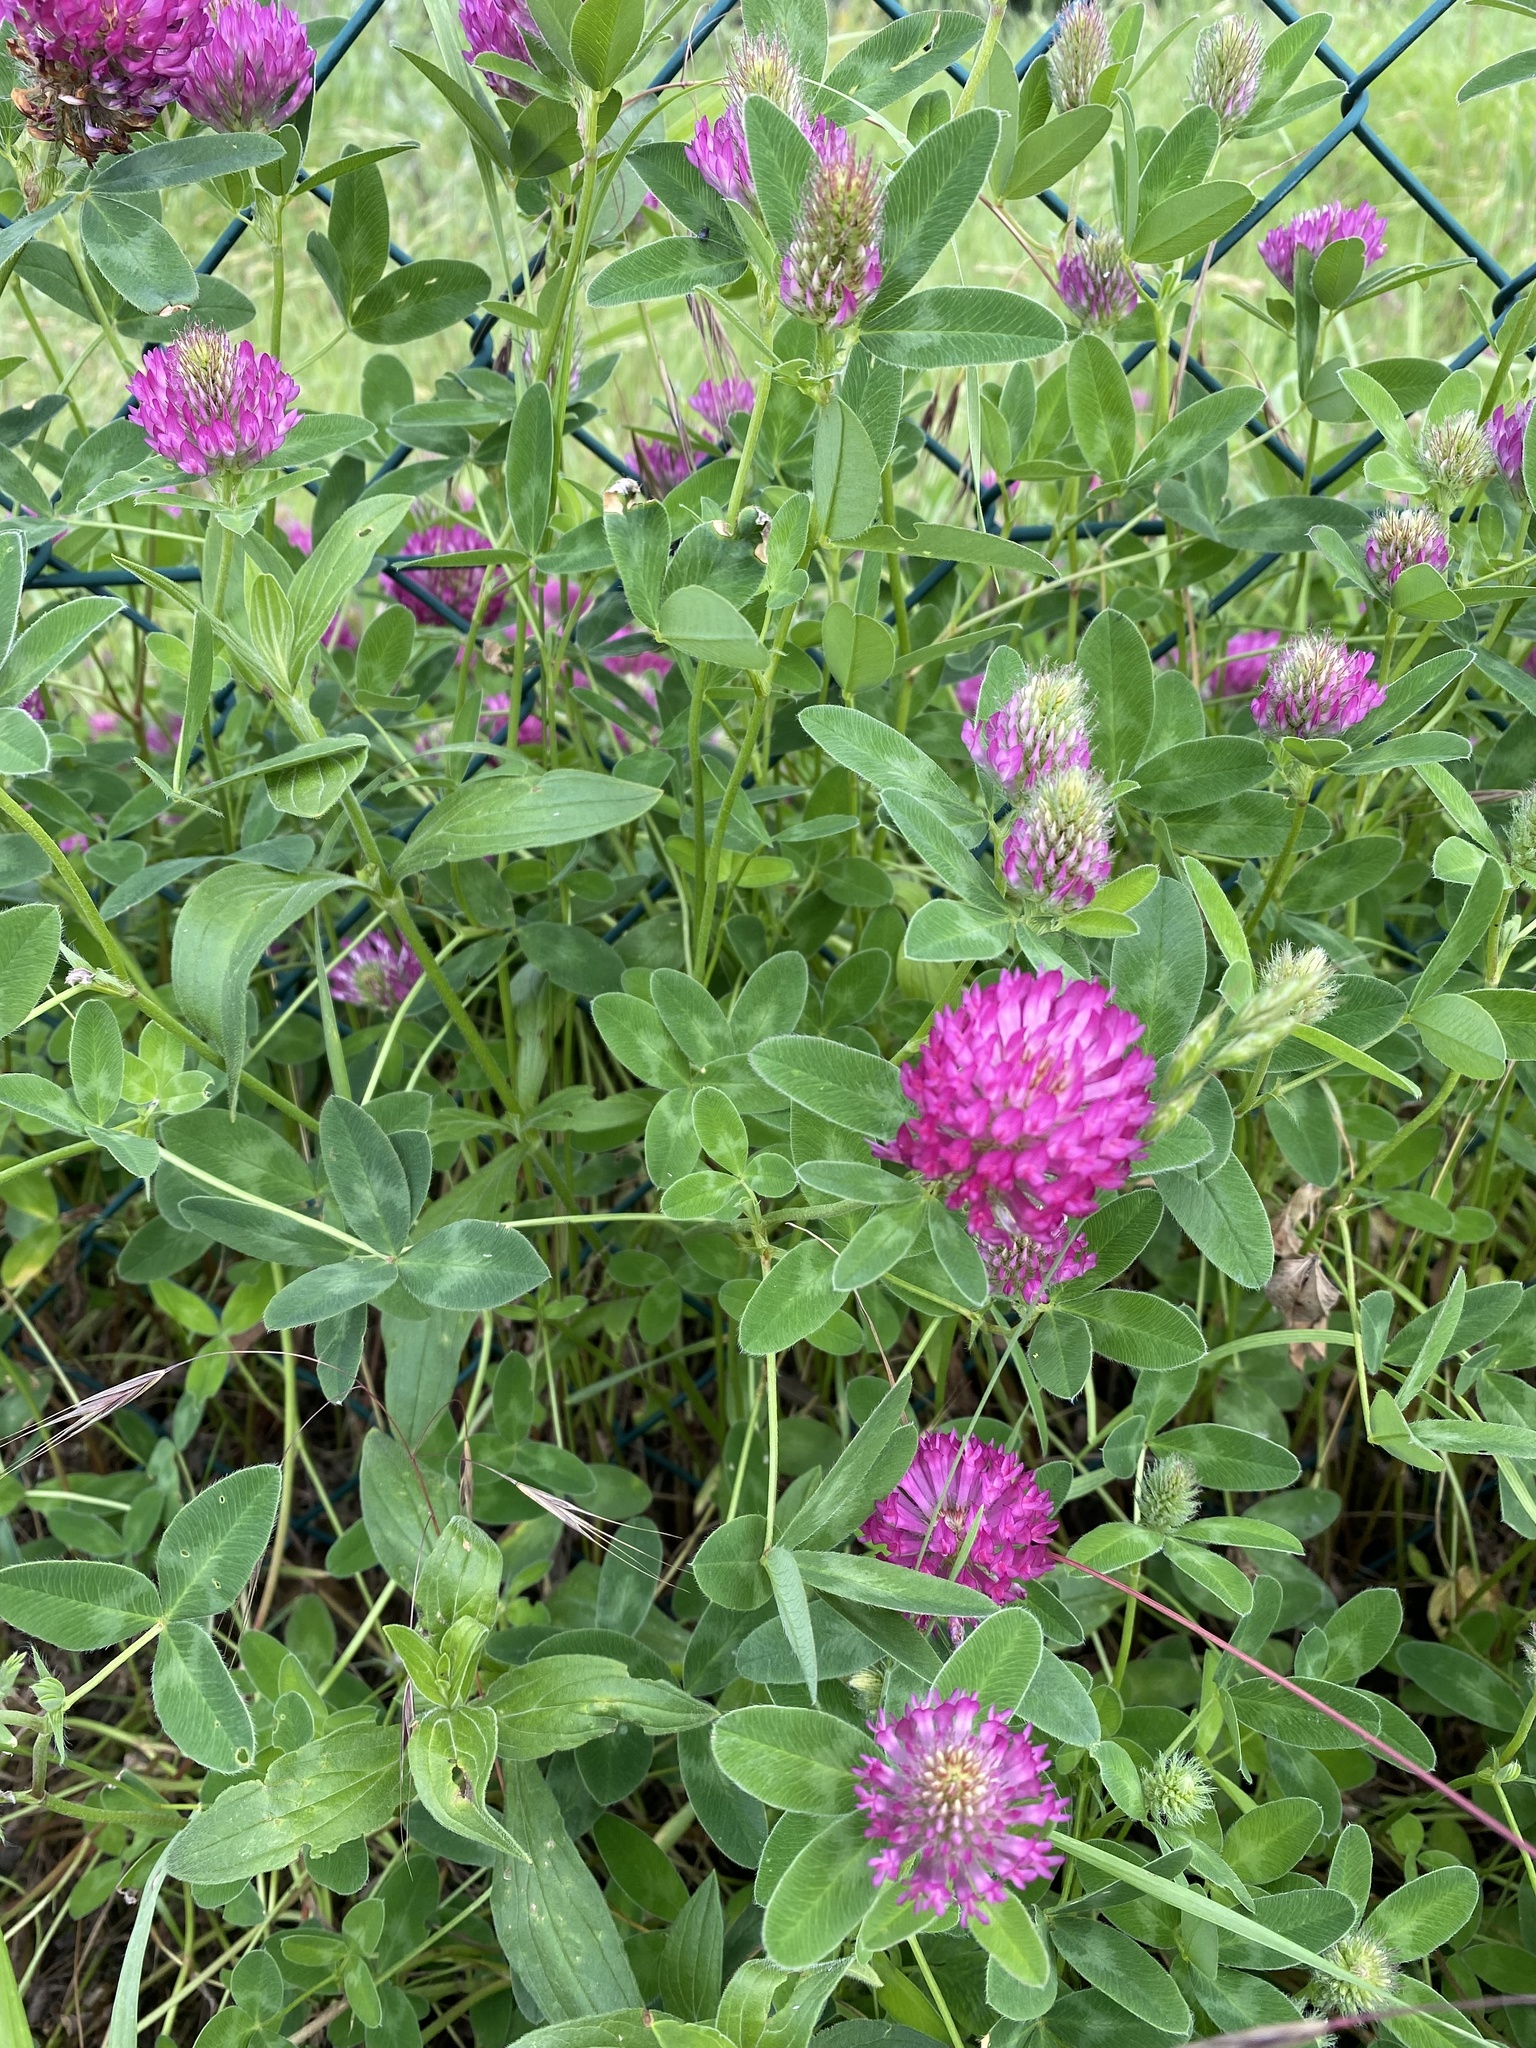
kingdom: Plantae
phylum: Tracheophyta
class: Magnoliopsida
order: Fabales
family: Fabaceae
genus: Trifolium
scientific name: Trifolium medium
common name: Zigzag clover
